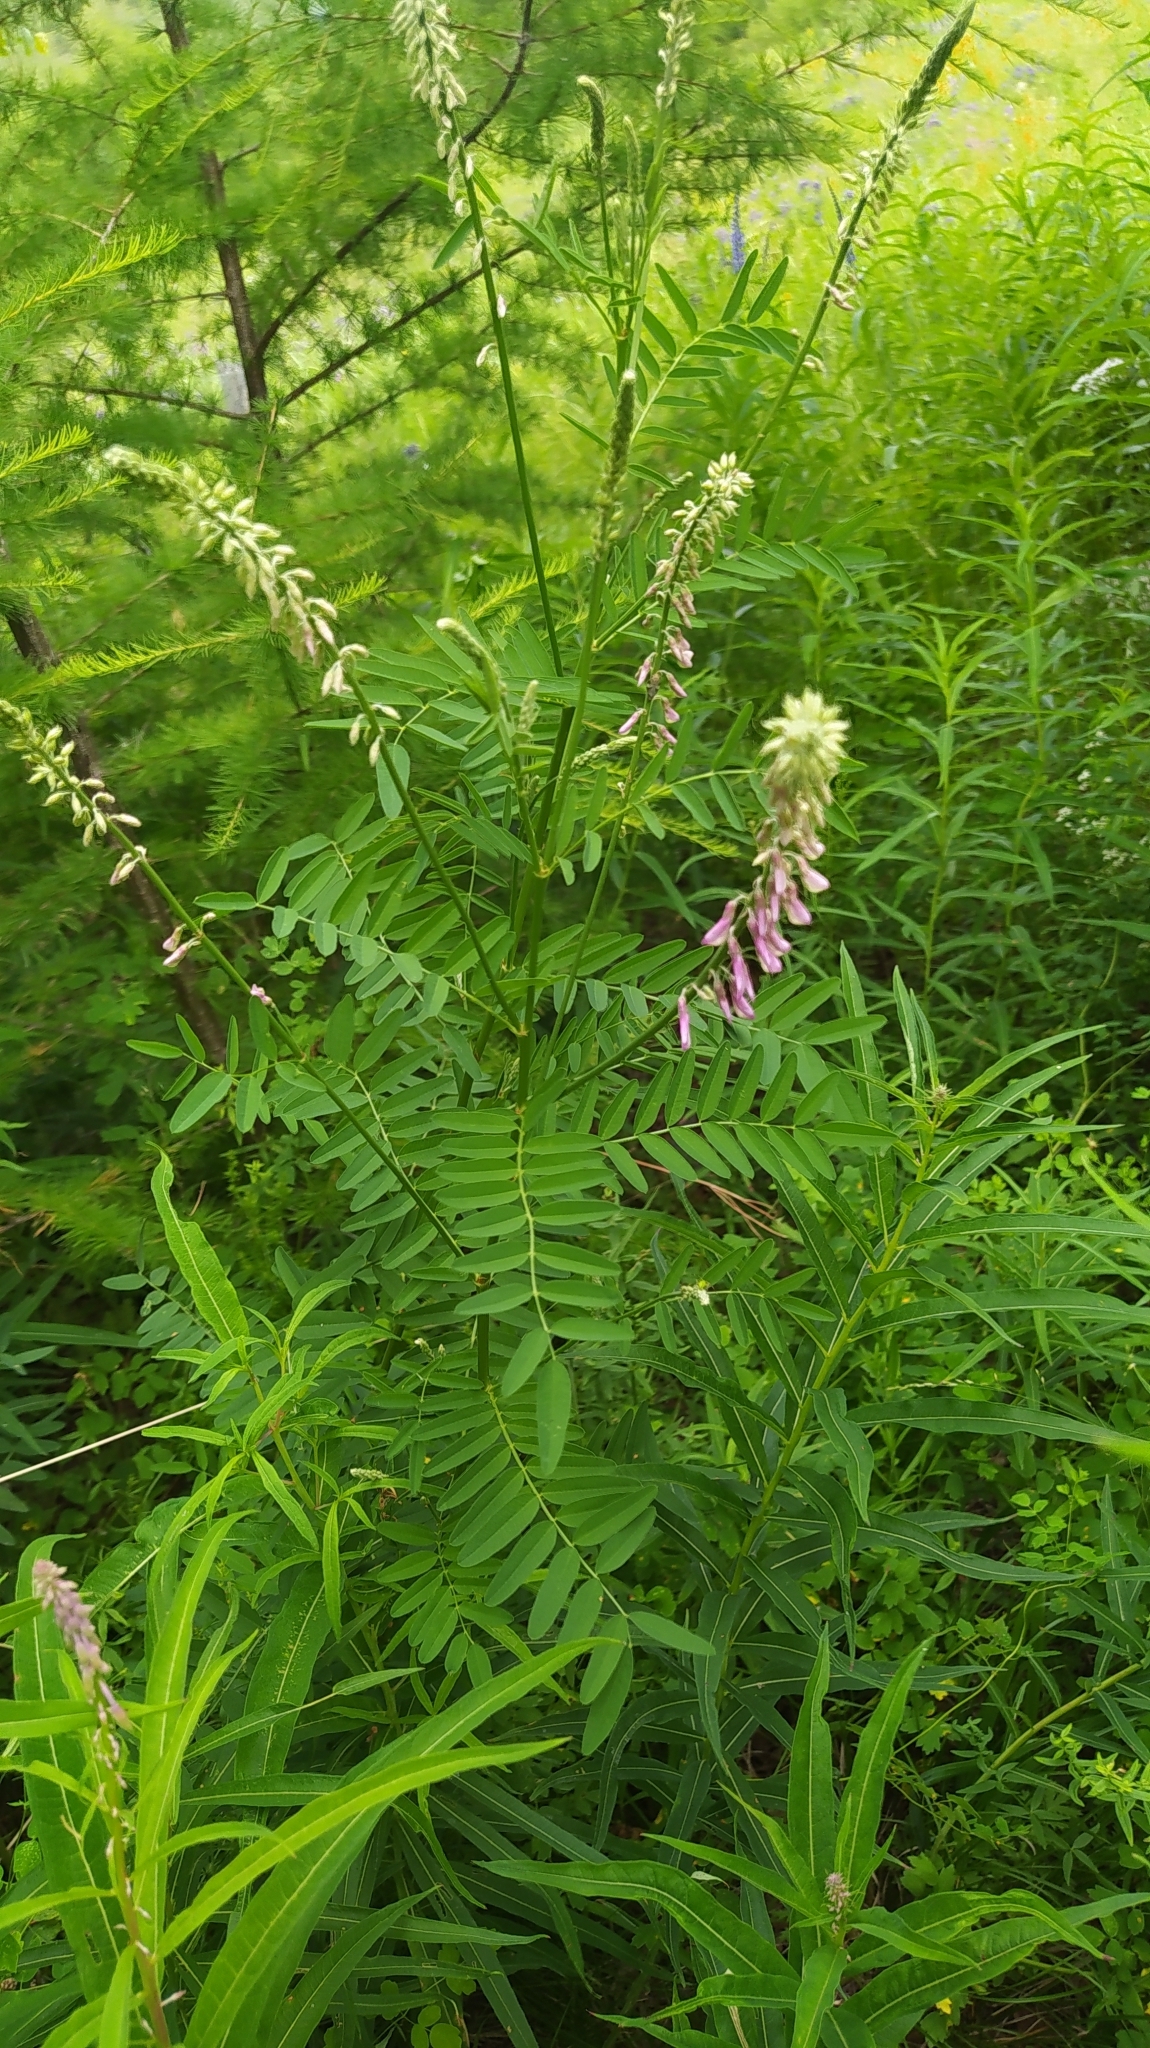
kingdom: Plantae
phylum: Tracheophyta
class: Magnoliopsida
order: Fabales
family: Fabaceae
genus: Hedysarum
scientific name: Hedysarum alpinum
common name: Alpine sweet-vetch
